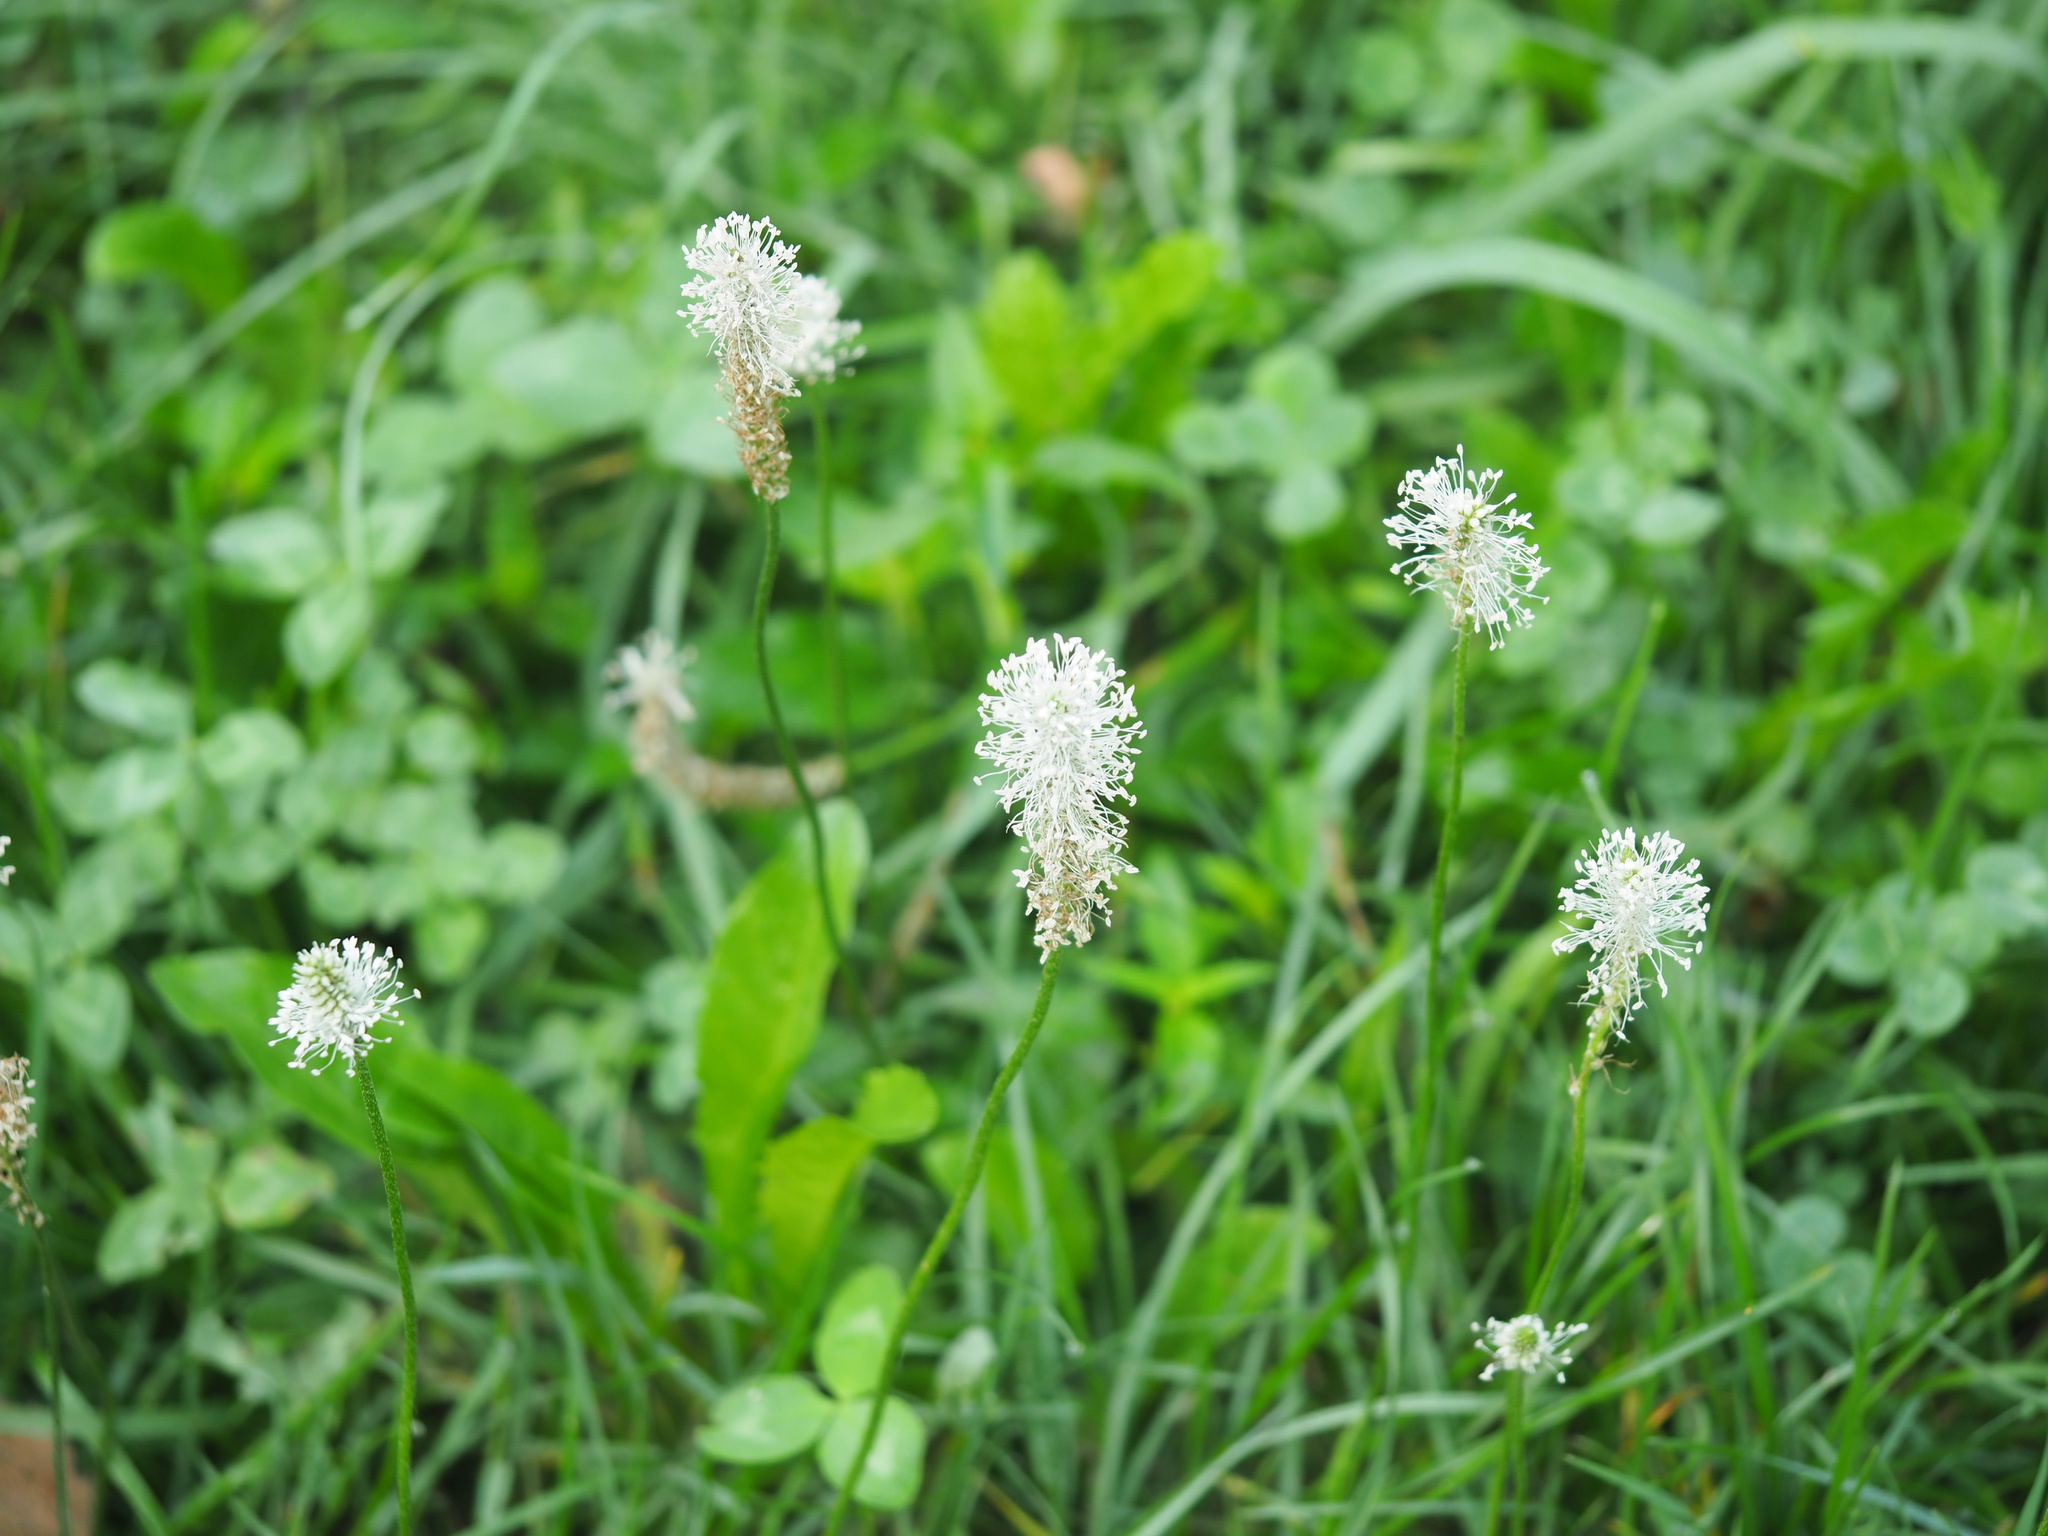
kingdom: Plantae
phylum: Tracheophyta
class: Magnoliopsida
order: Lamiales
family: Plantaginaceae
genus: Plantago
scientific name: Plantago media
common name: Hoary plantain
